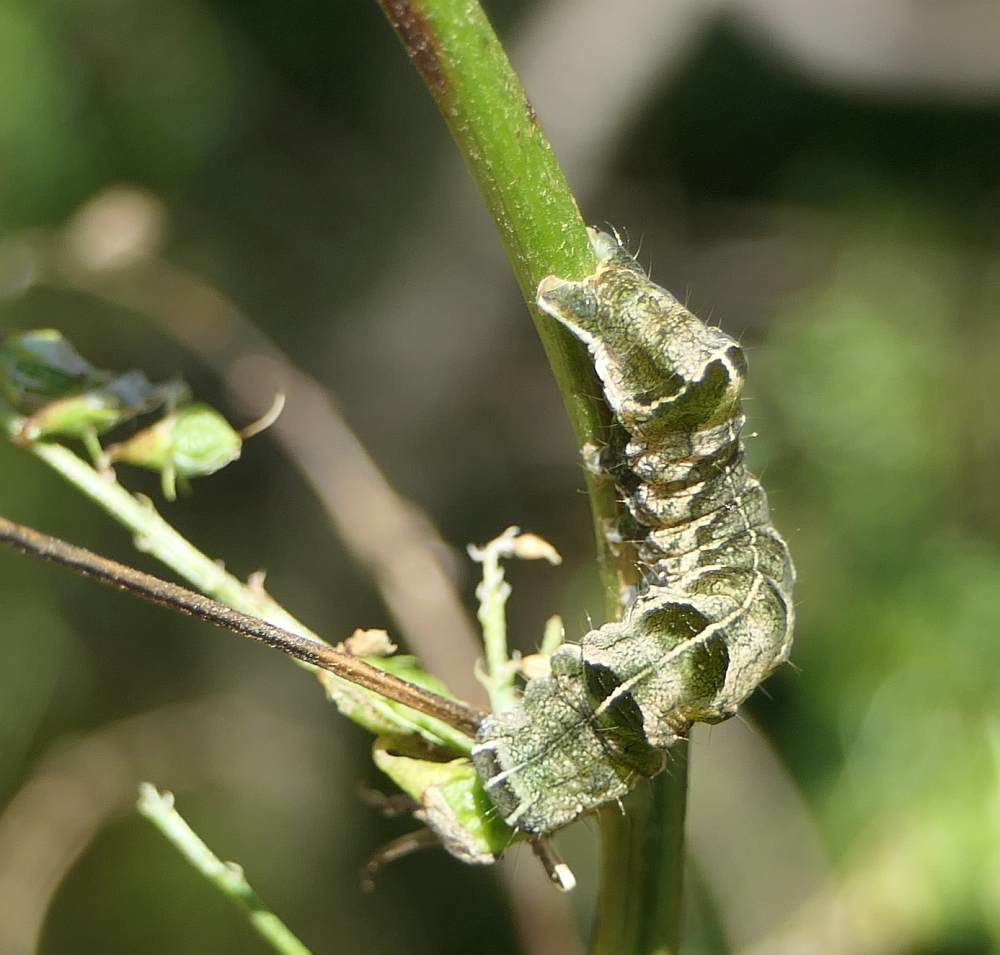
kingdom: Animalia
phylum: Arthropoda
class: Insecta
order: Lepidoptera
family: Noctuidae
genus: Melanchra
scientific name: Melanchra adjuncta
